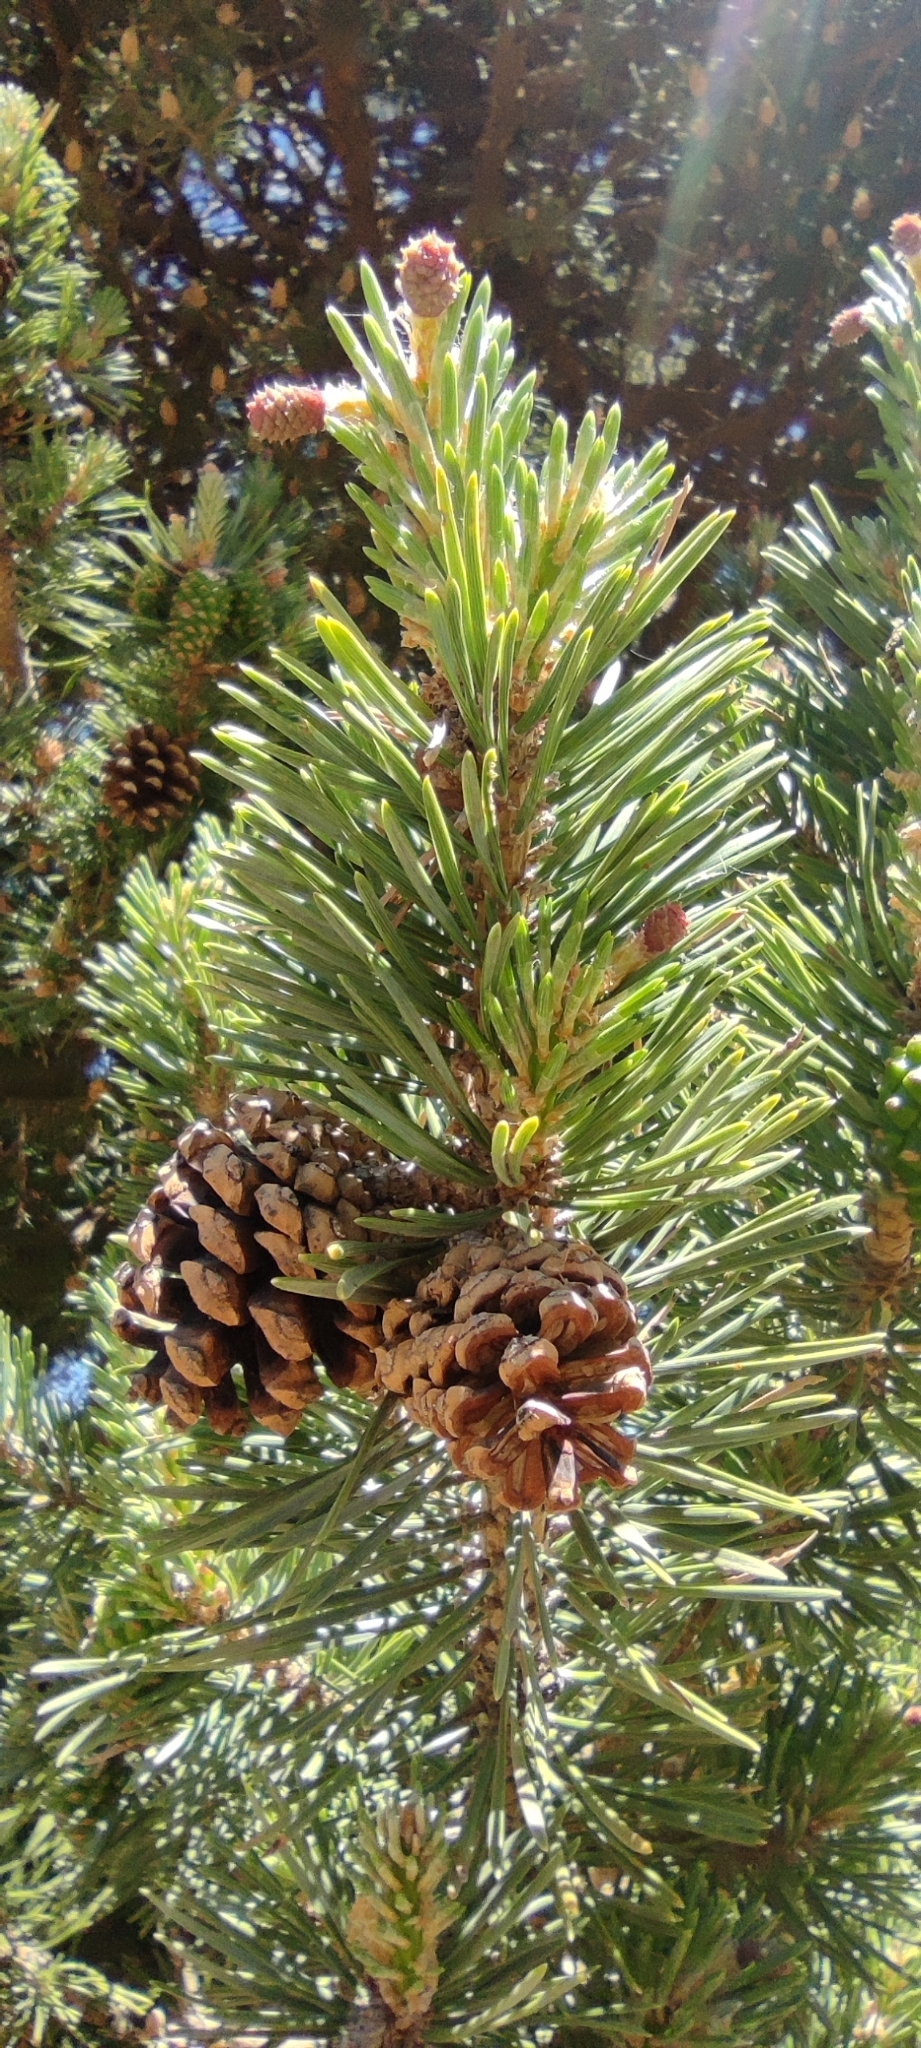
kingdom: Plantae
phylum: Tracheophyta
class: Pinopsida
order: Pinales
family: Pinaceae
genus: Pinus
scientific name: Pinus sylvestris
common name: Scots pine
